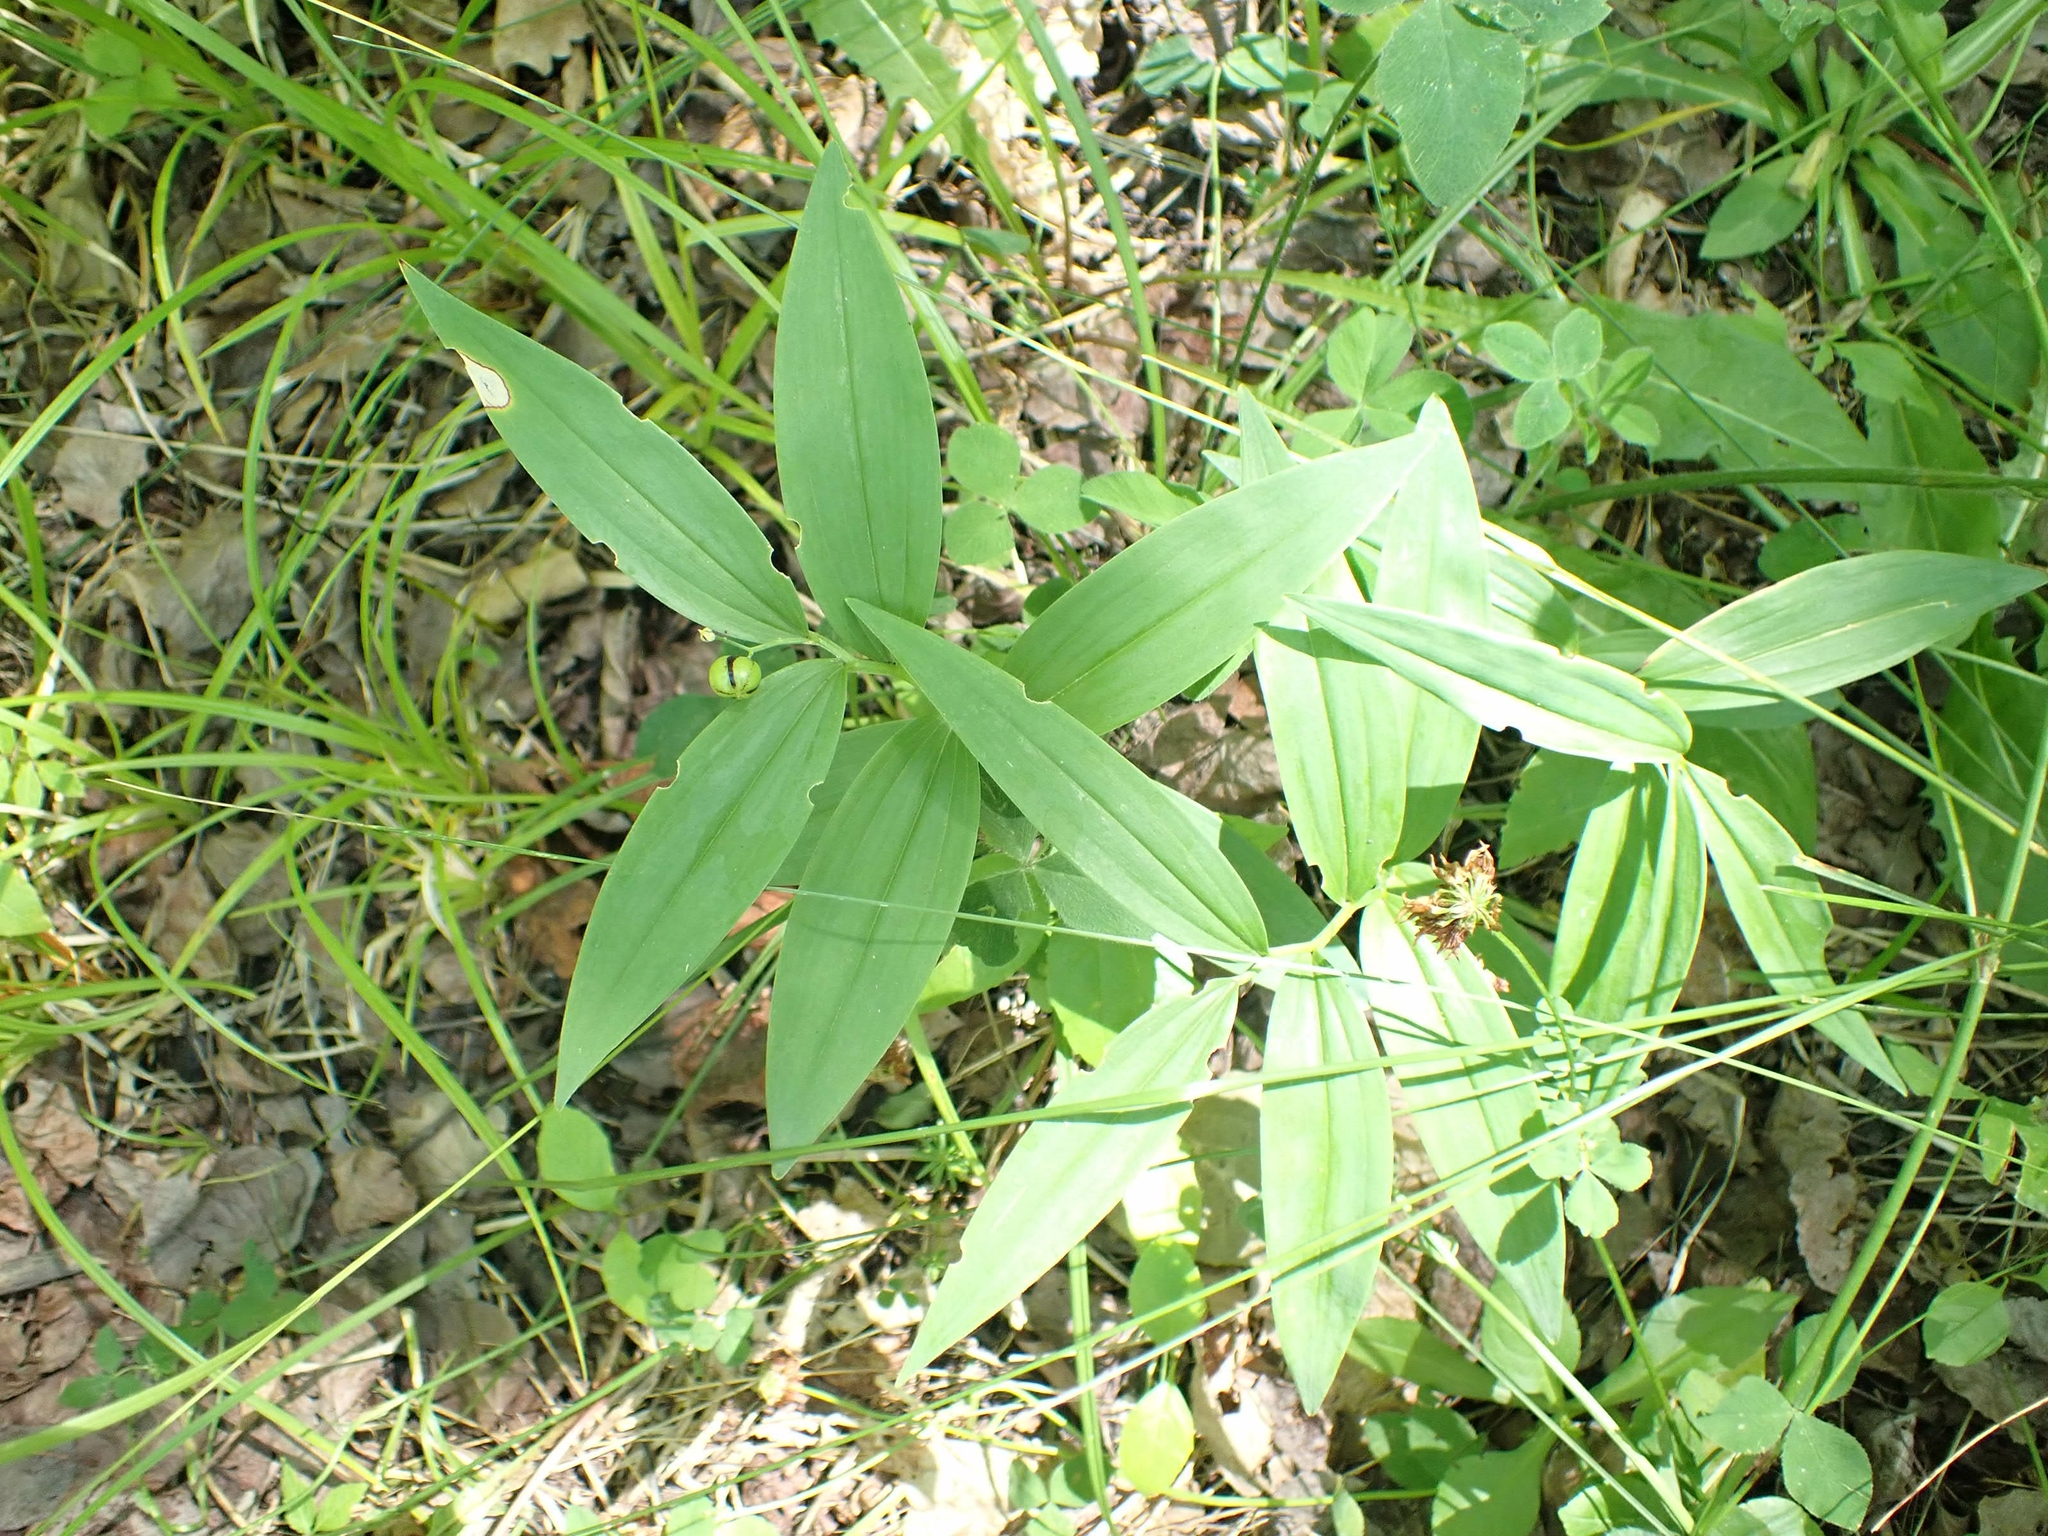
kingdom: Plantae
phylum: Tracheophyta
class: Liliopsida
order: Asparagales
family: Asparagaceae
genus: Maianthemum
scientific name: Maianthemum stellatum
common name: Little false solomon's seal
